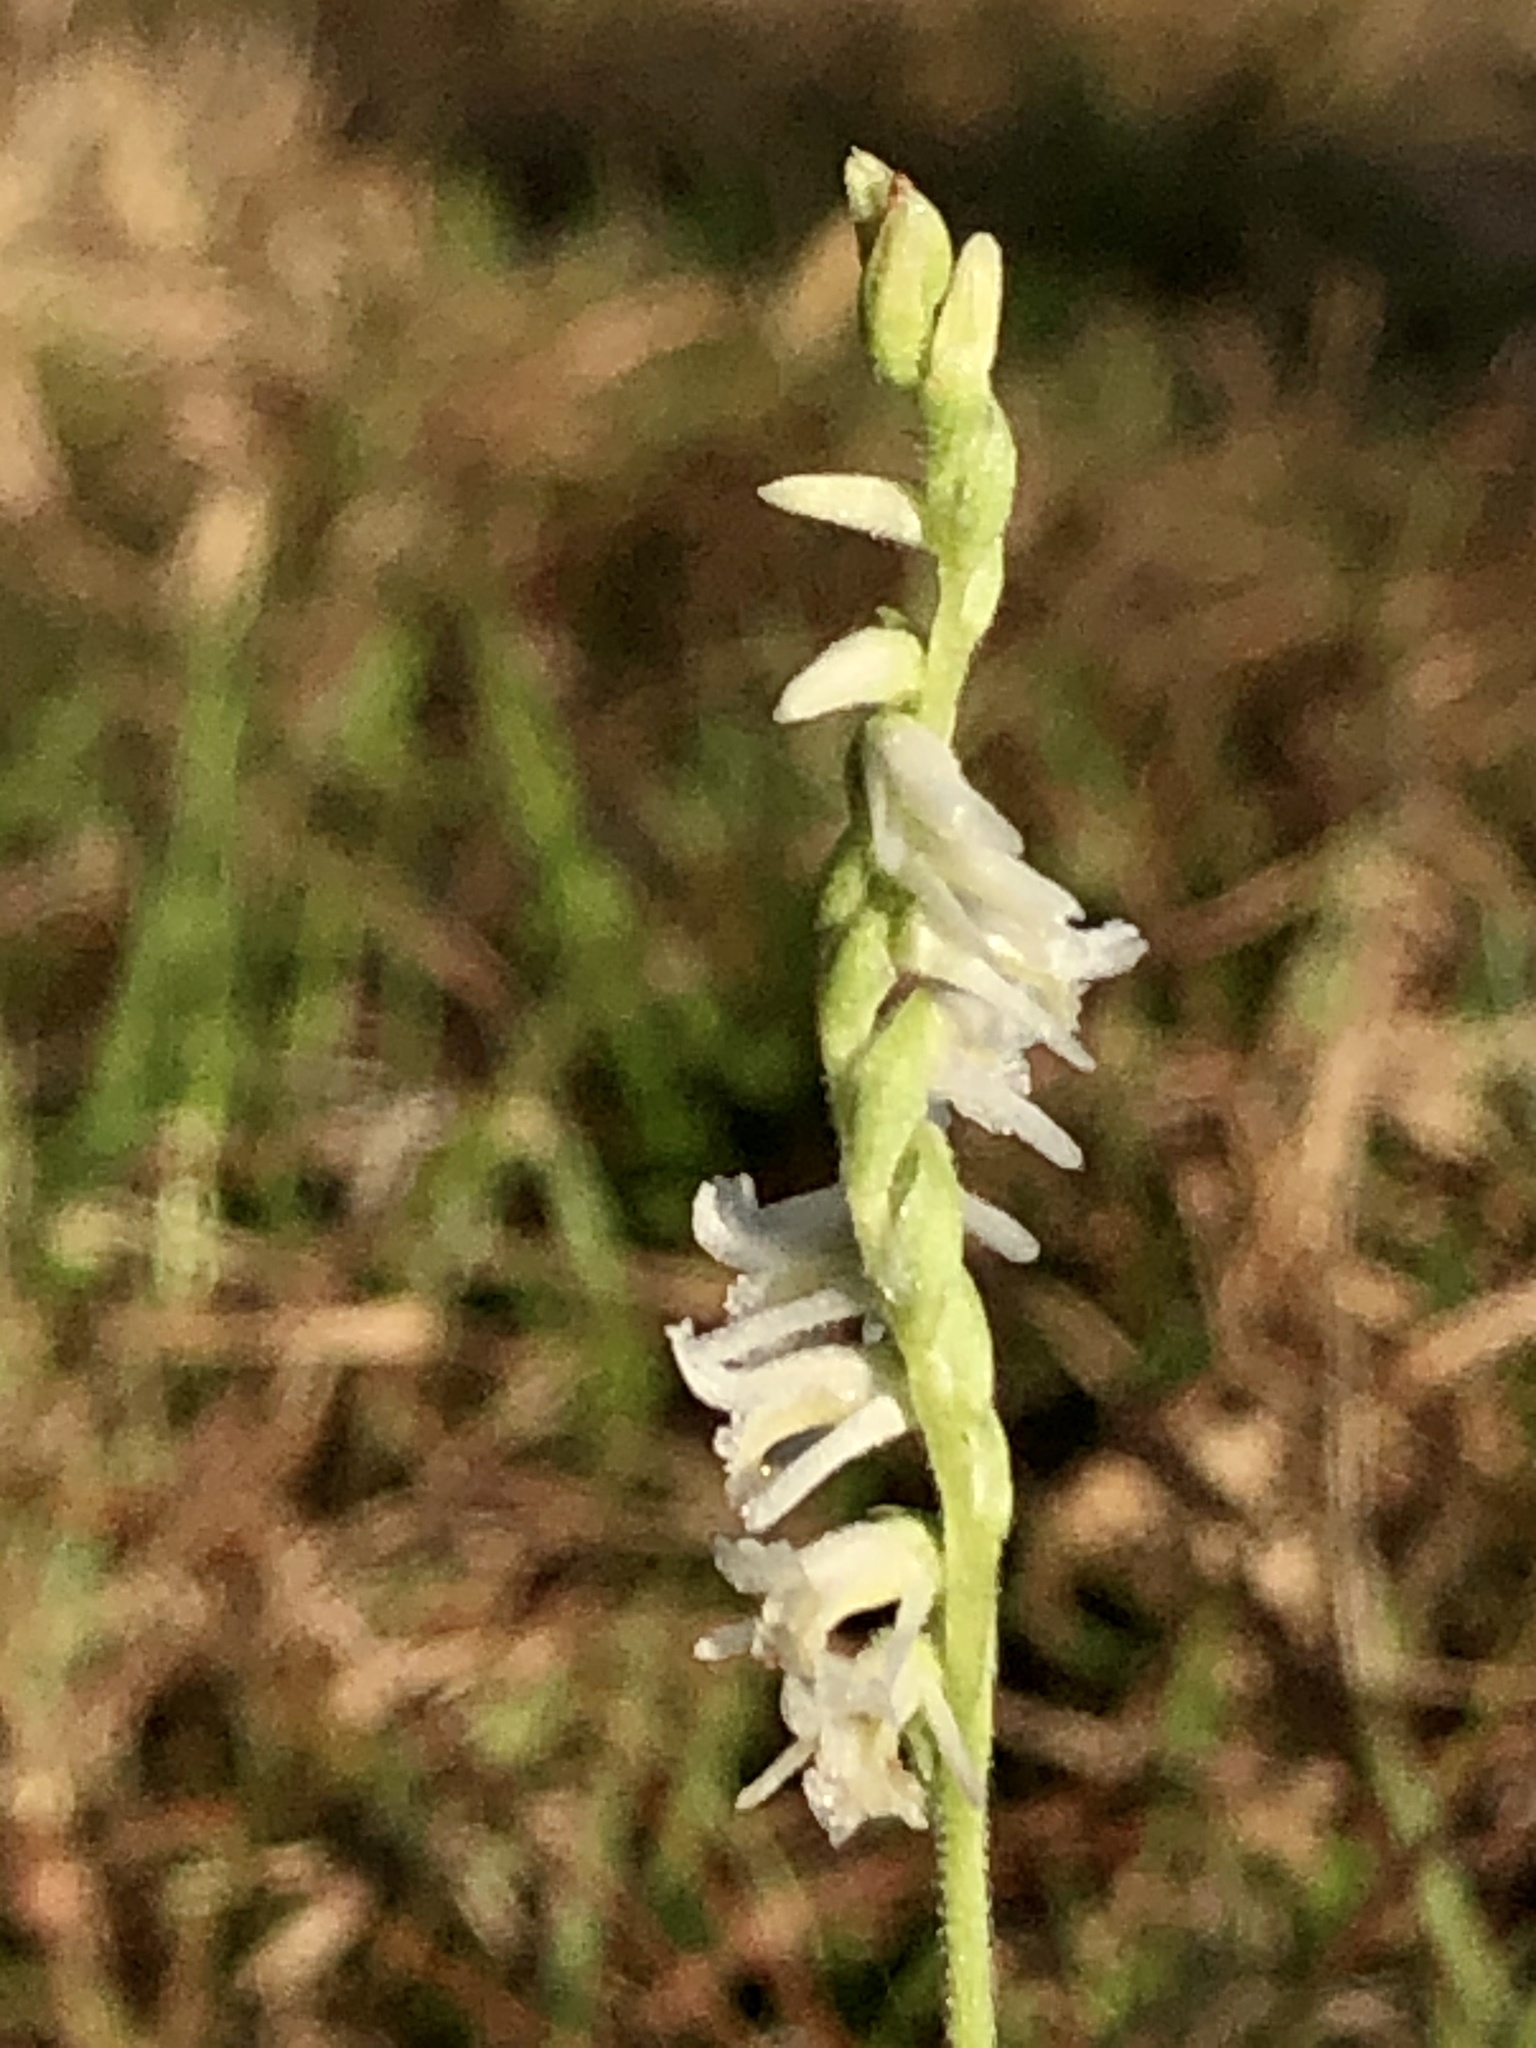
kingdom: Plantae
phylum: Tracheophyta
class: Liliopsida
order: Asparagales
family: Orchidaceae
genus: Spiranthes
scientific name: Spiranthes vernalis
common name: Spring ladies'-tresses
